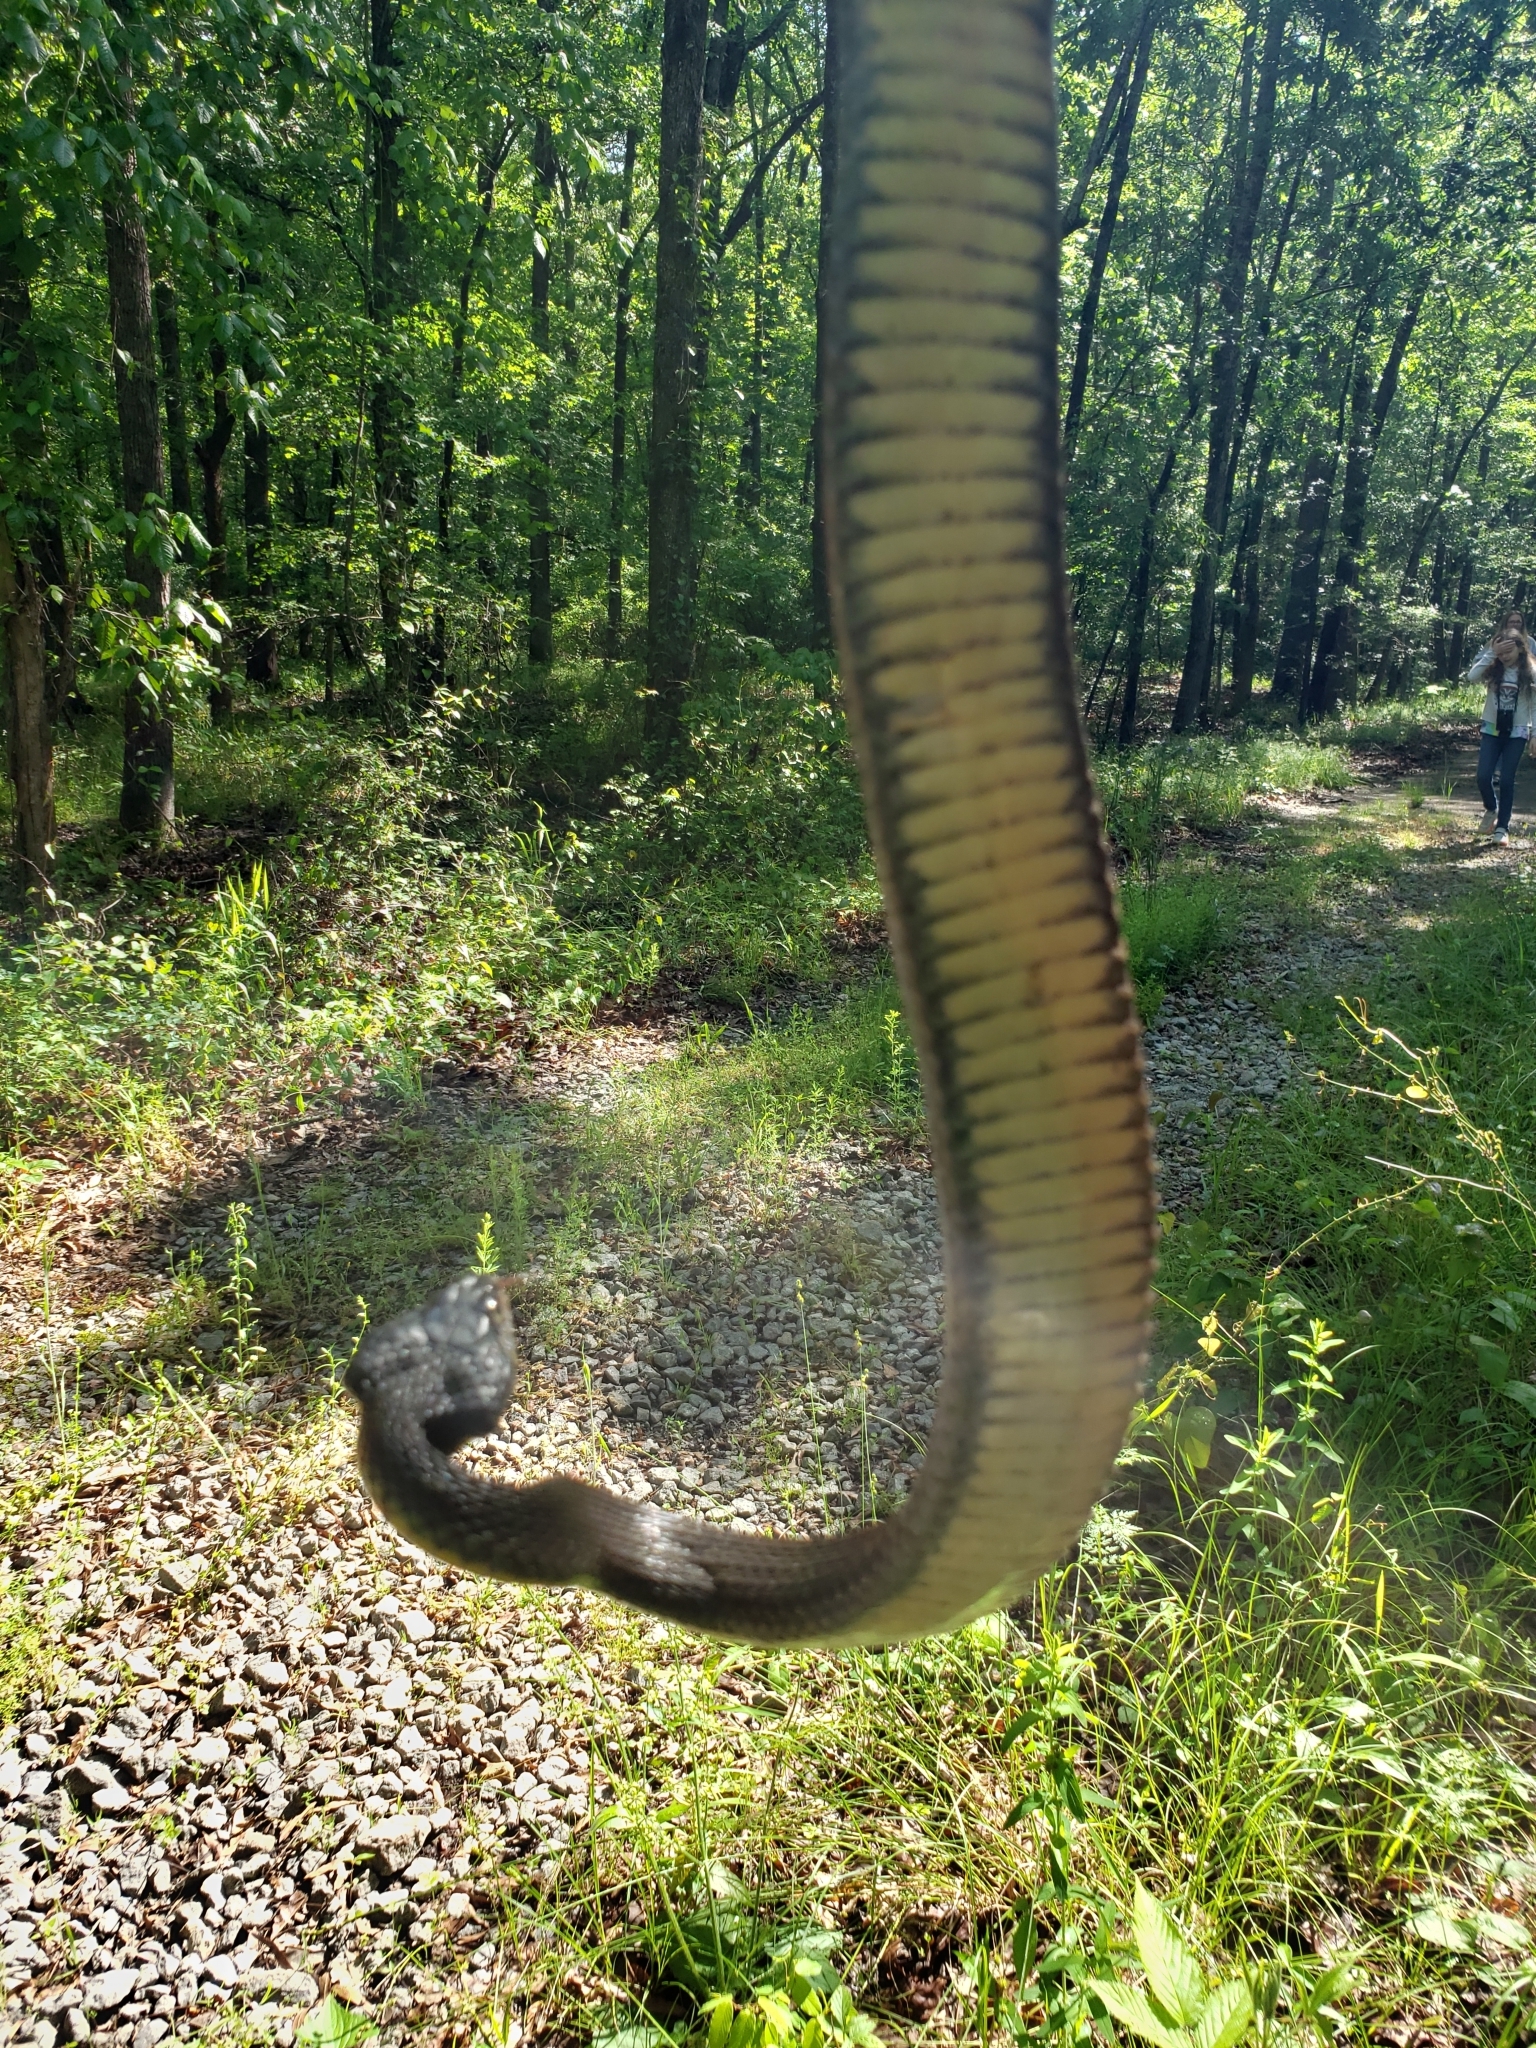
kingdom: Animalia
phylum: Chordata
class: Squamata
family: Colubridae
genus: Nerodia
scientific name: Nerodia erythrogaster
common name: Plainbelly water snake
